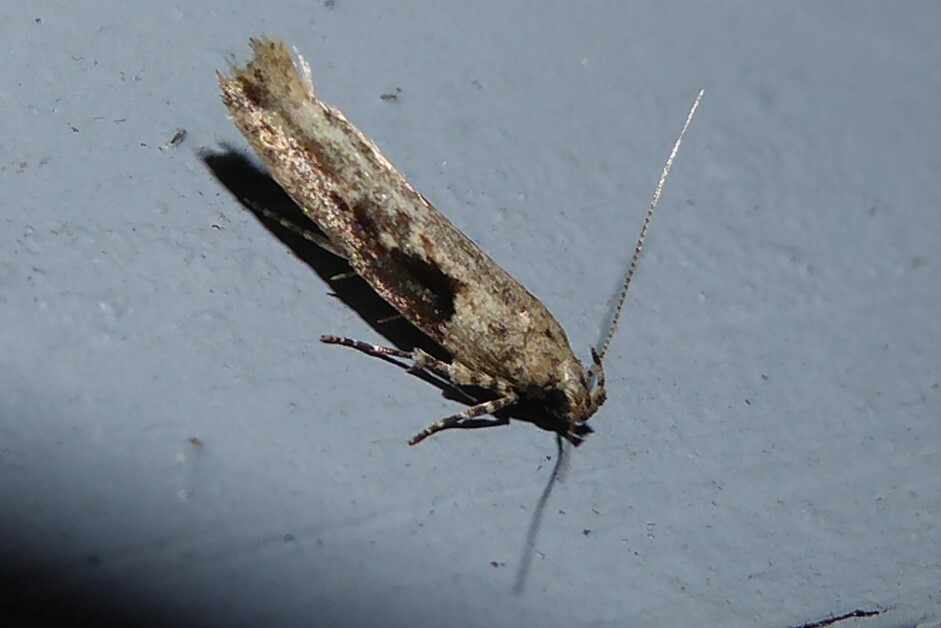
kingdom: Animalia
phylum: Arthropoda
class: Insecta
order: Lepidoptera
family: Gelechiidae
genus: Symmetrischema
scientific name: Symmetrischema tangolias
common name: Moth
